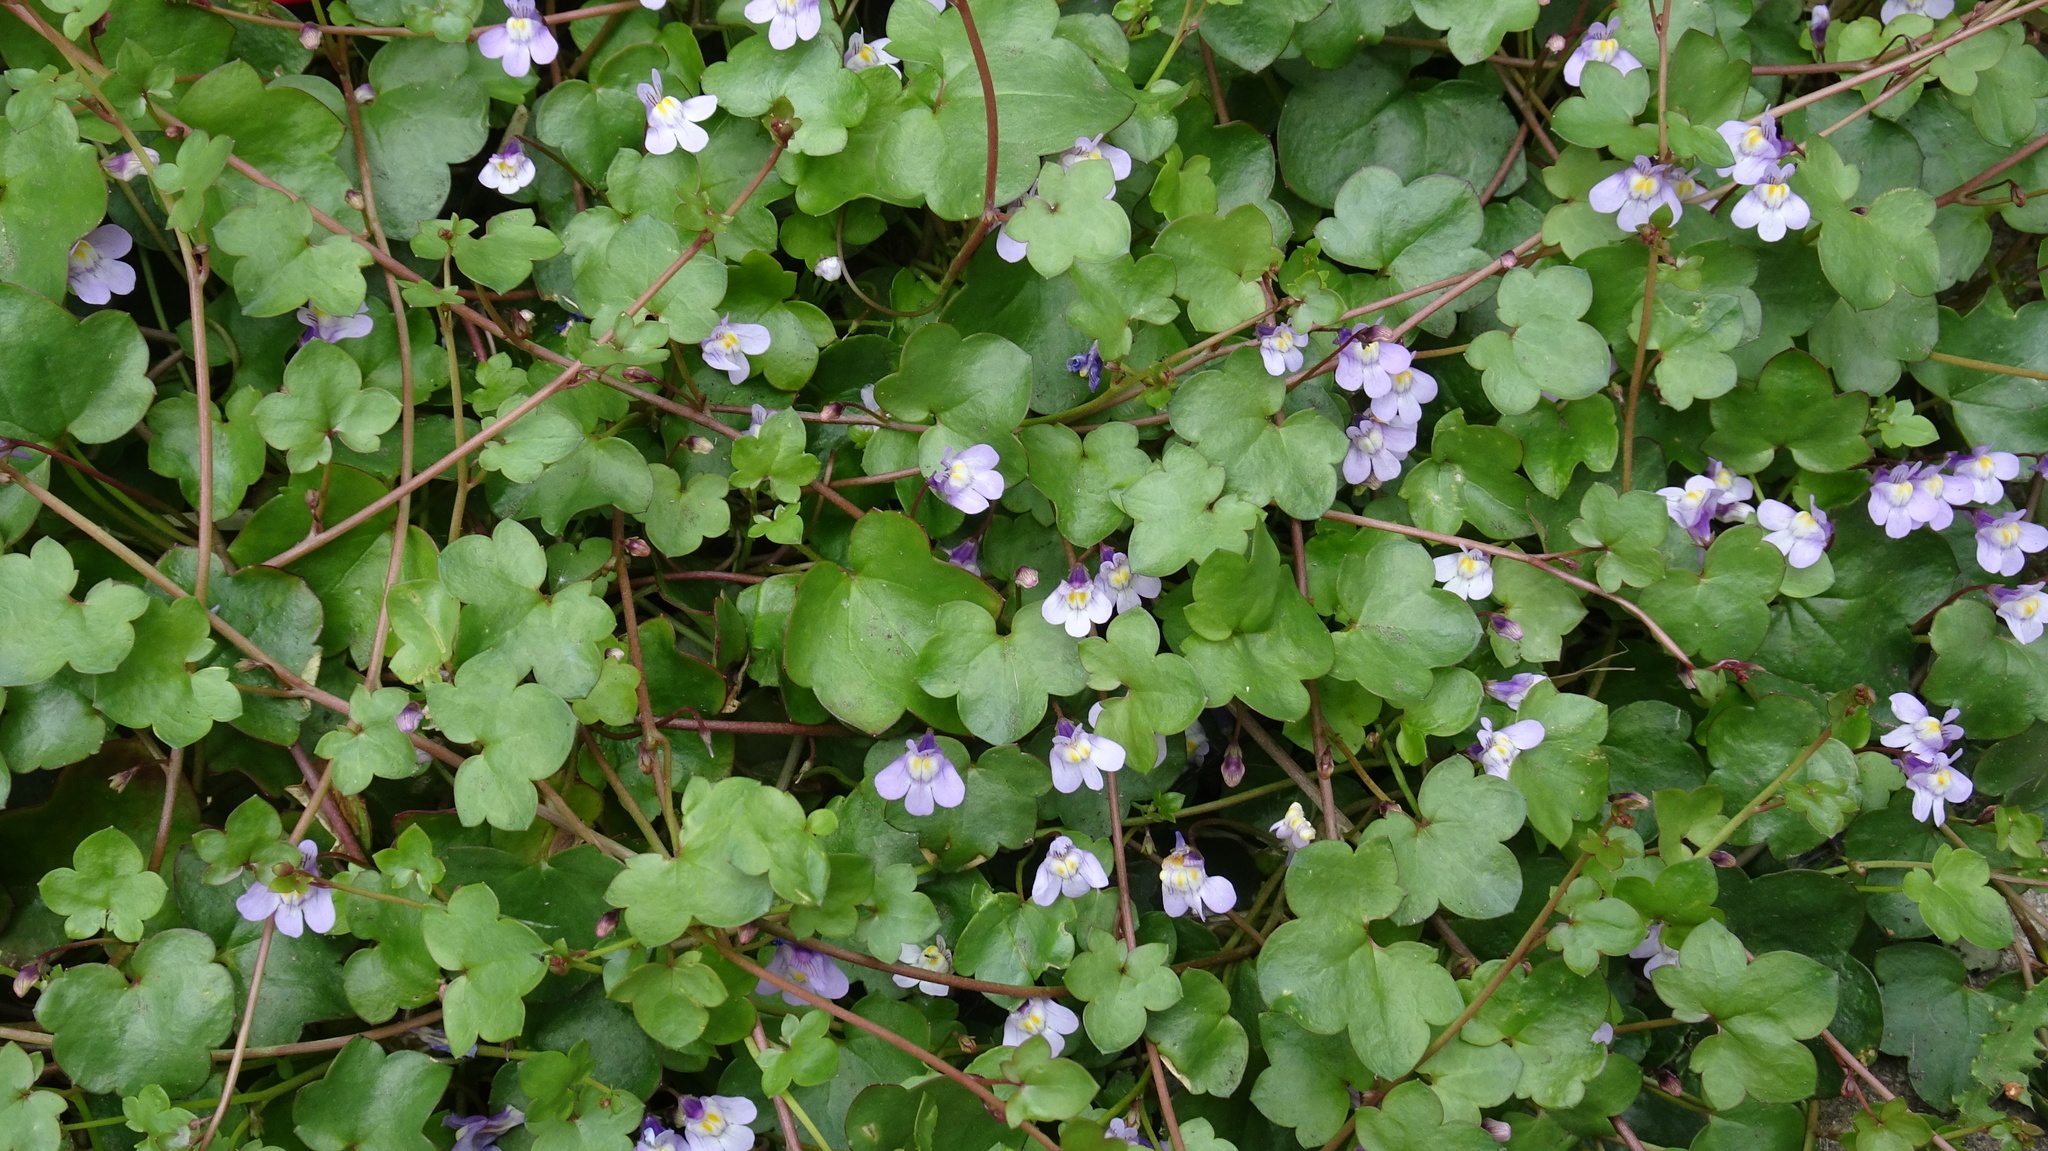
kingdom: Plantae
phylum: Tracheophyta
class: Magnoliopsida
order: Lamiales
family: Plantaginaceae
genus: Cymbalaria
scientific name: Cymbalaria muralis
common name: Ivy-leaved toadflax
